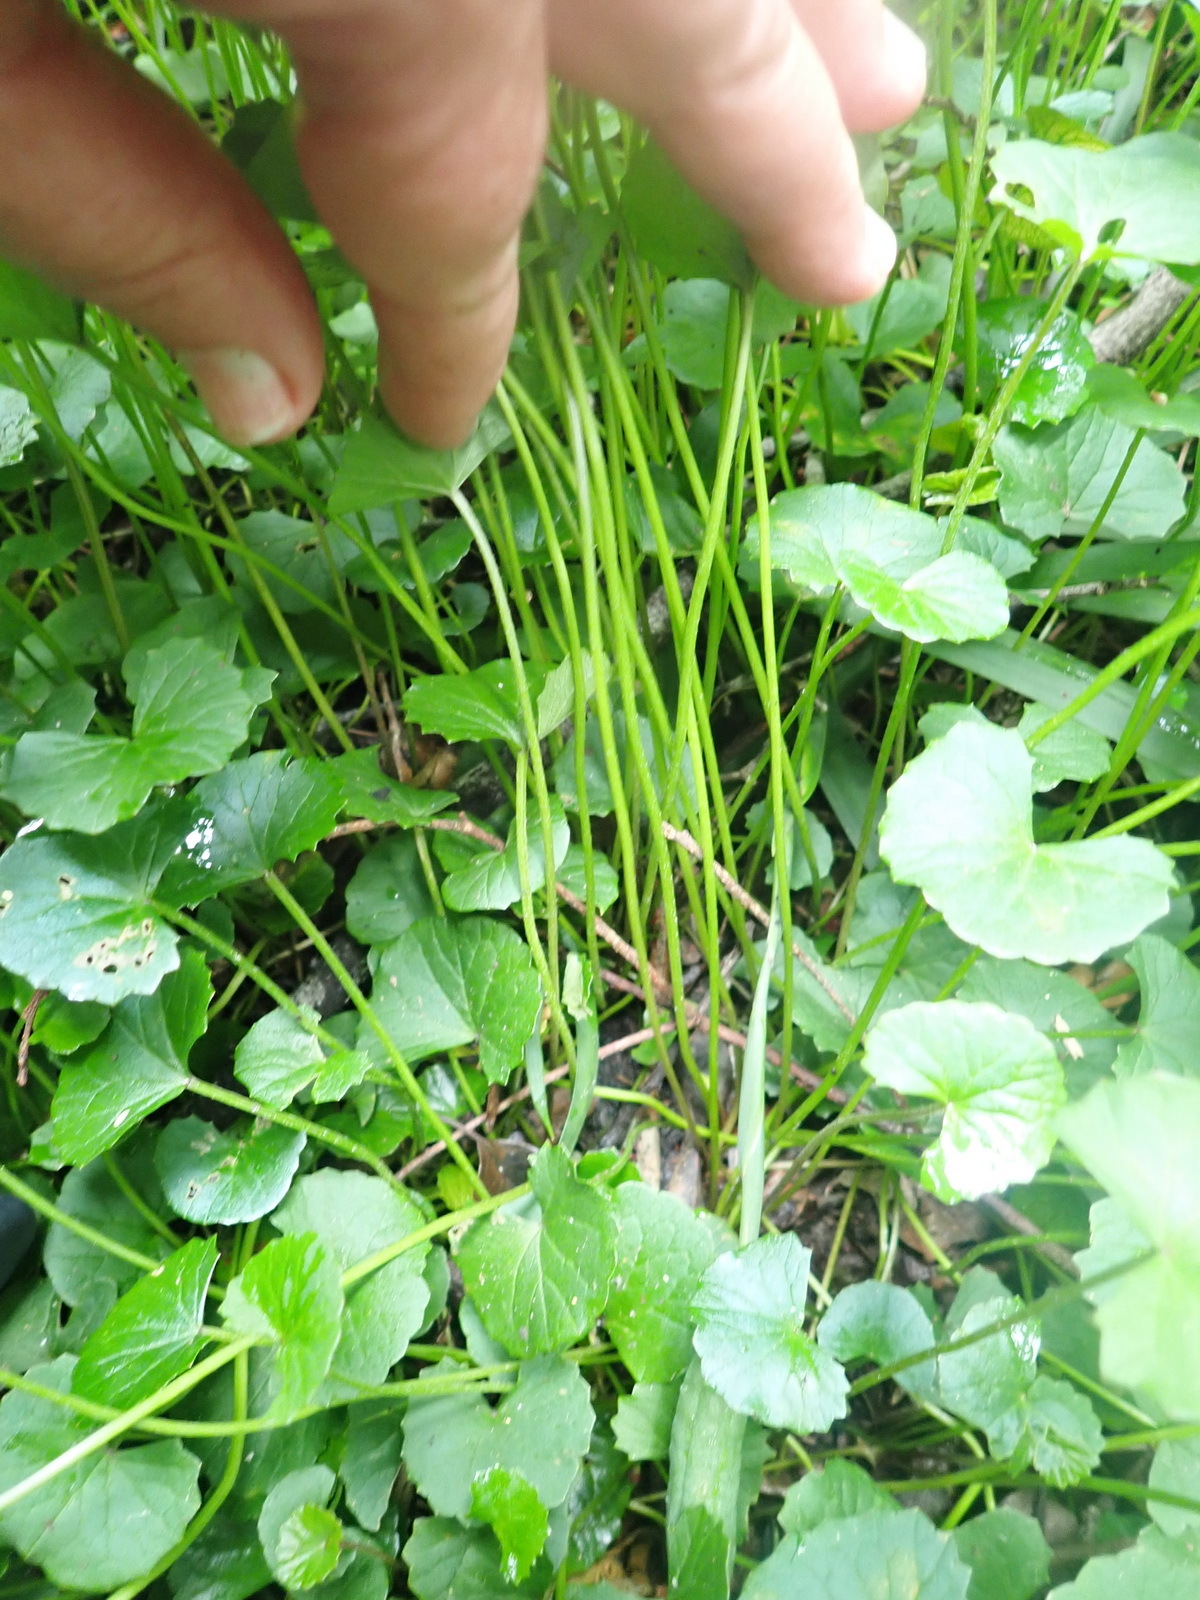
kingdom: Plantae
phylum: Tracheophyta
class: Magnoliopsida
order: Apiales
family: Apiaceae
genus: Centella
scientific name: Centella asiatica
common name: Spadeleaf
